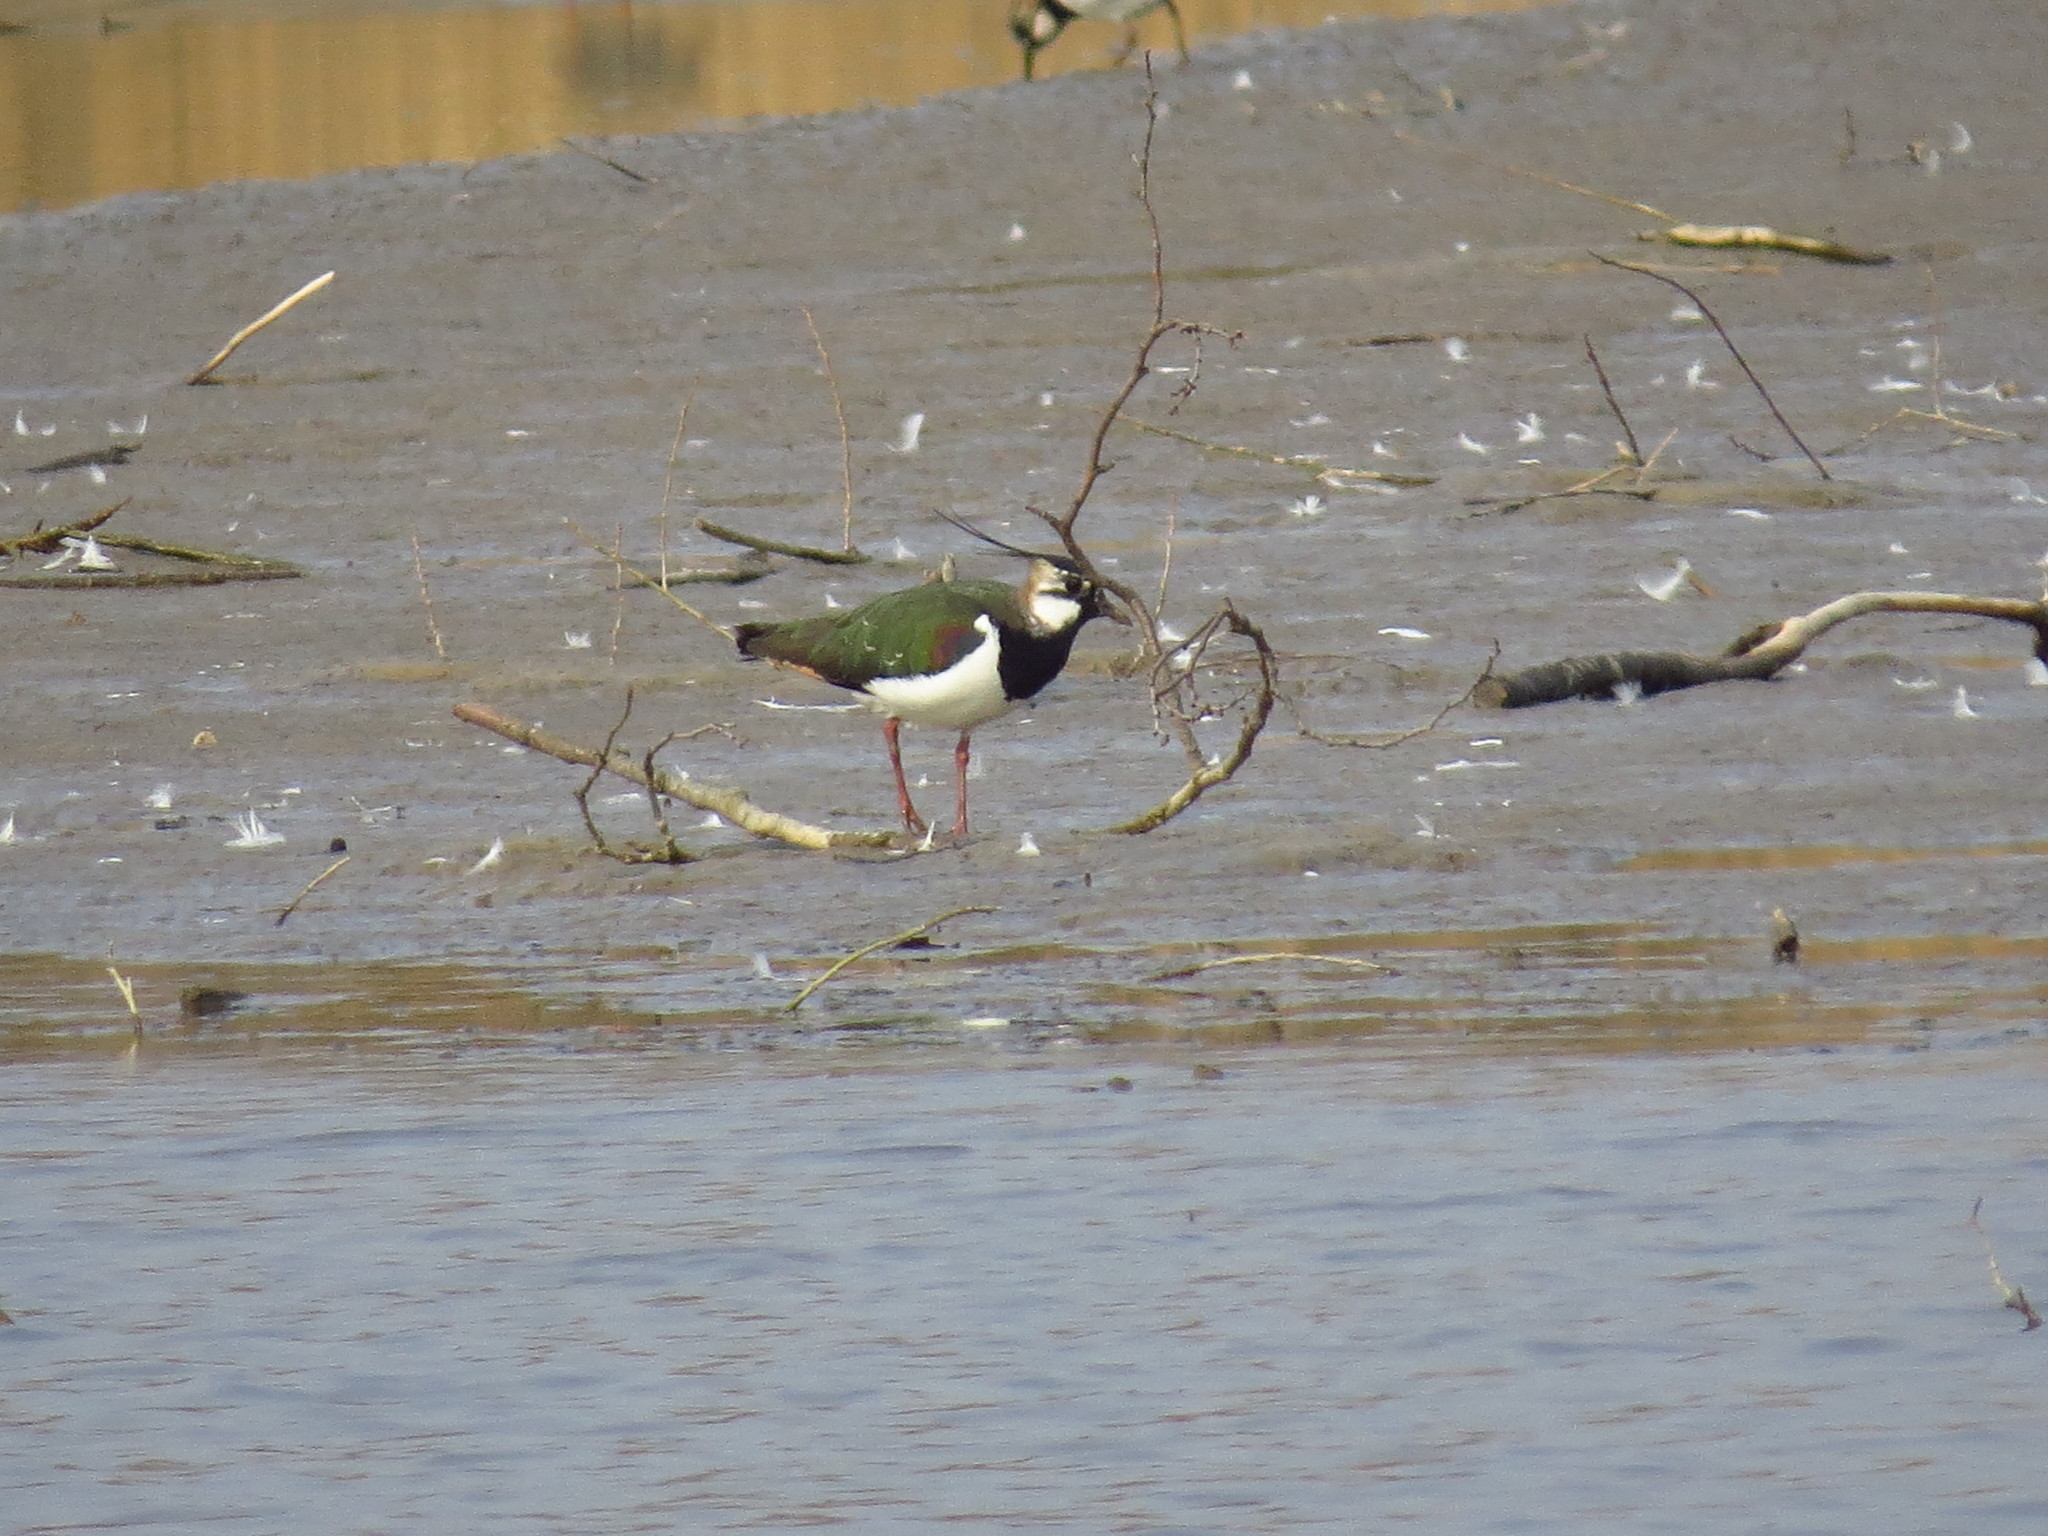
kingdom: Animalia
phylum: Chordata
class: Aves
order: Charadriiformes
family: Charadriidae
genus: Vanellus
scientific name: Vanellus vanellus
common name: Northern lapwing
